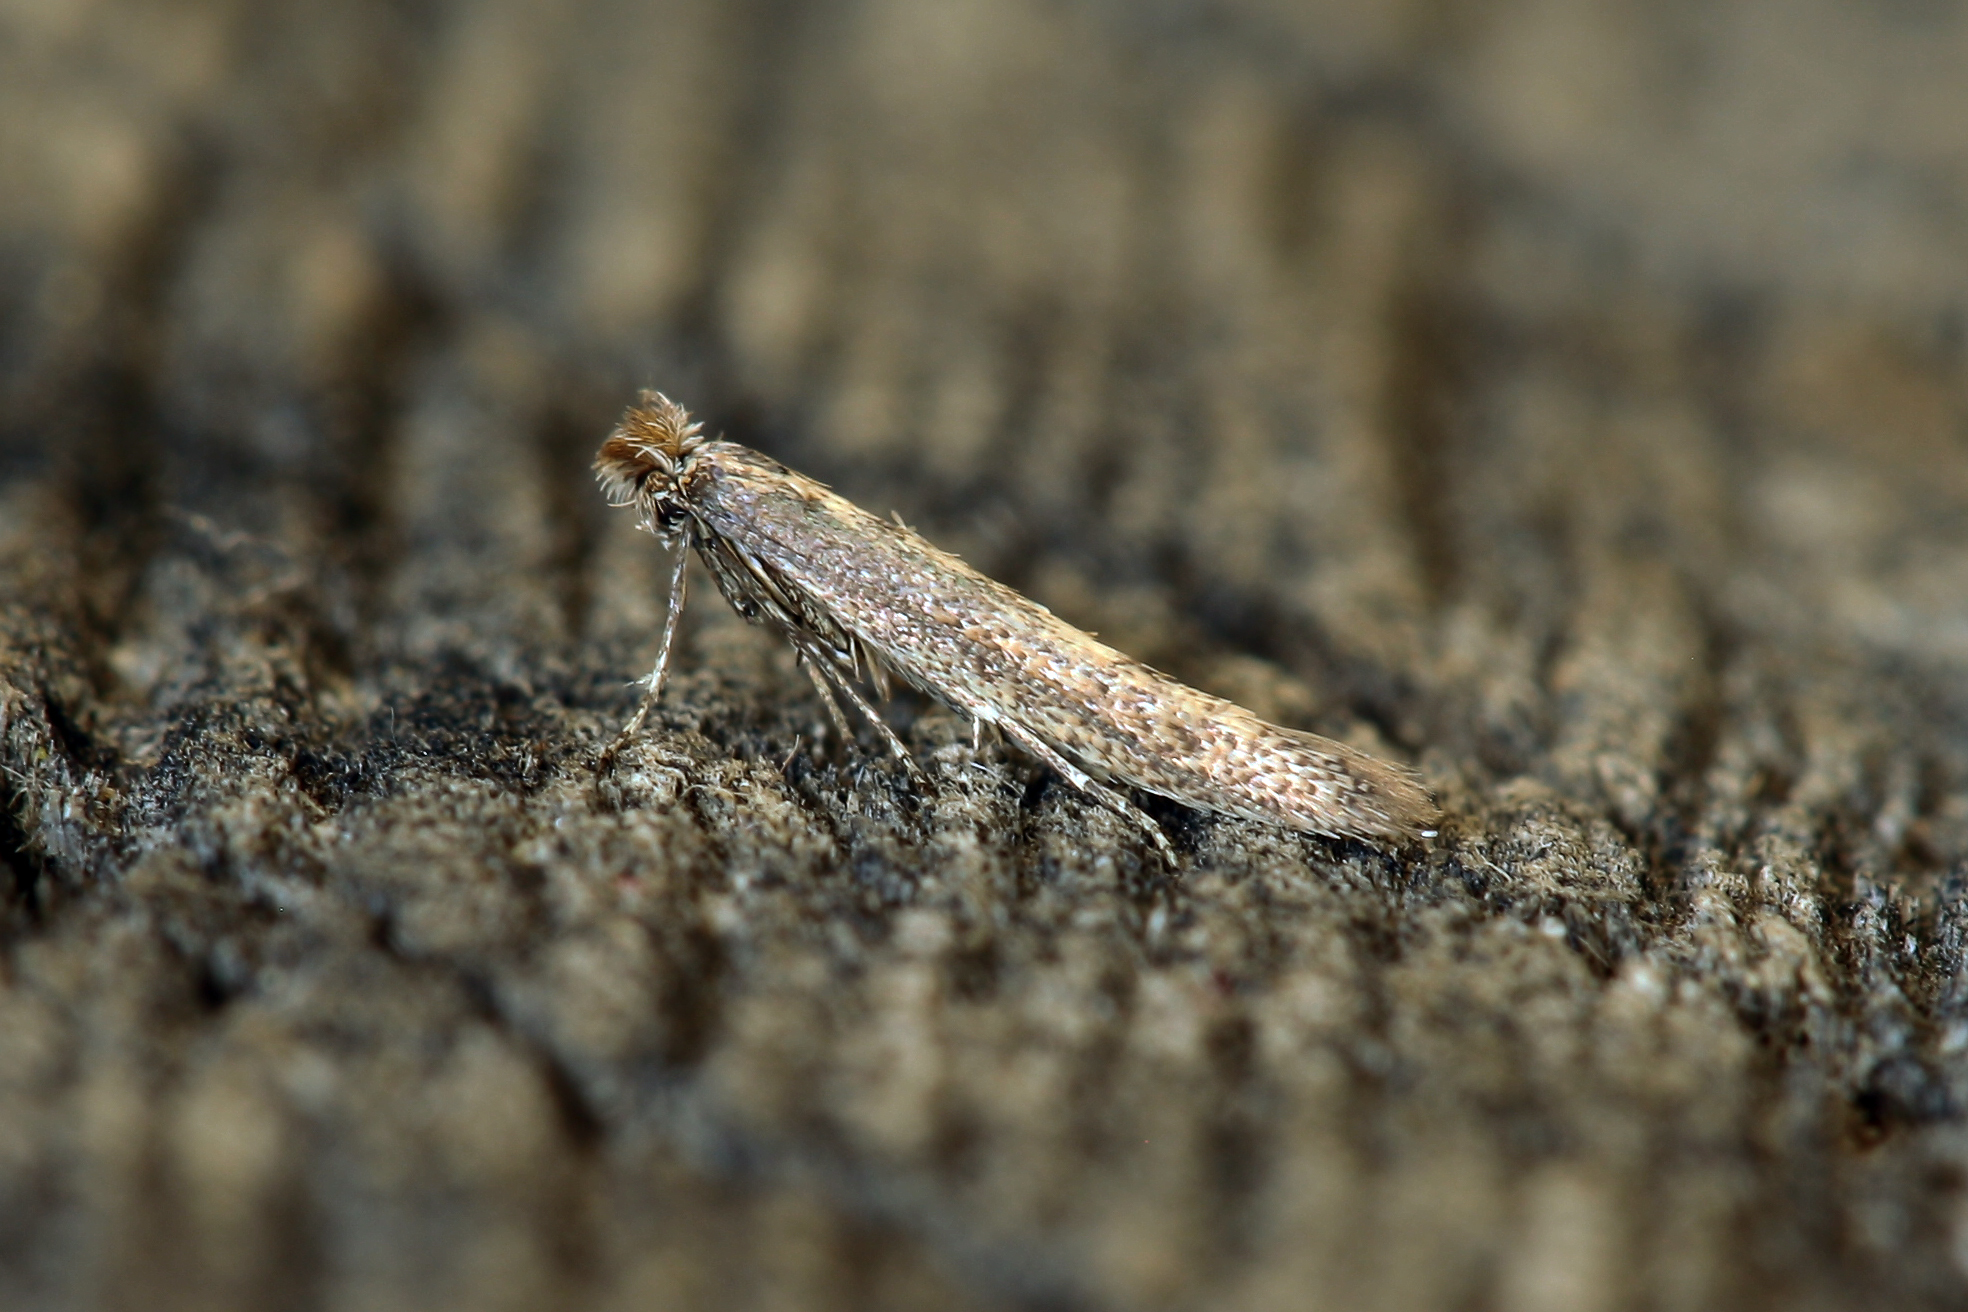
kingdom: Animalia
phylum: Arthropoda
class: Insecta
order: Lepidoptera
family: Bedelliidae
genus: Bedellia
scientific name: Bedellia somnulentella
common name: Morning-glory leafminer moth
